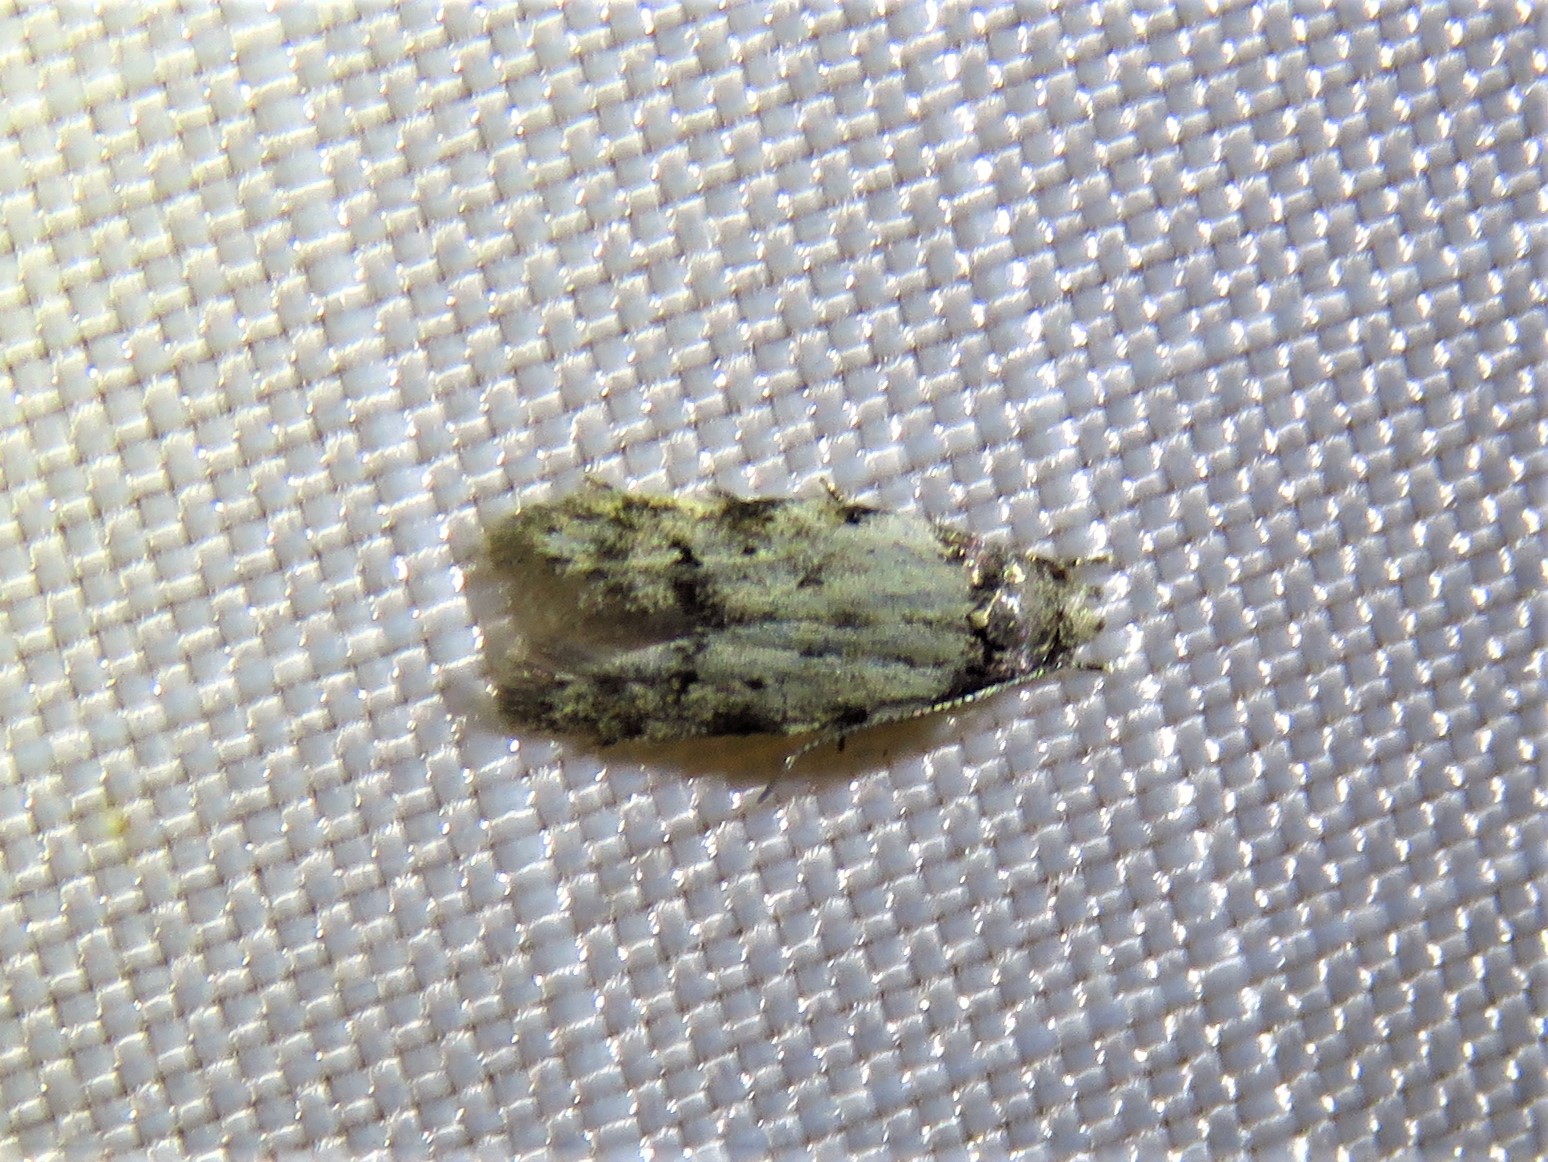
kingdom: Animalia
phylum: Arthropoda
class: Insecta
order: Lepidoptera
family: Autostichidae
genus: Taygete
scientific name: Taygete attributella
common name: Triangle-marked twirler moth
